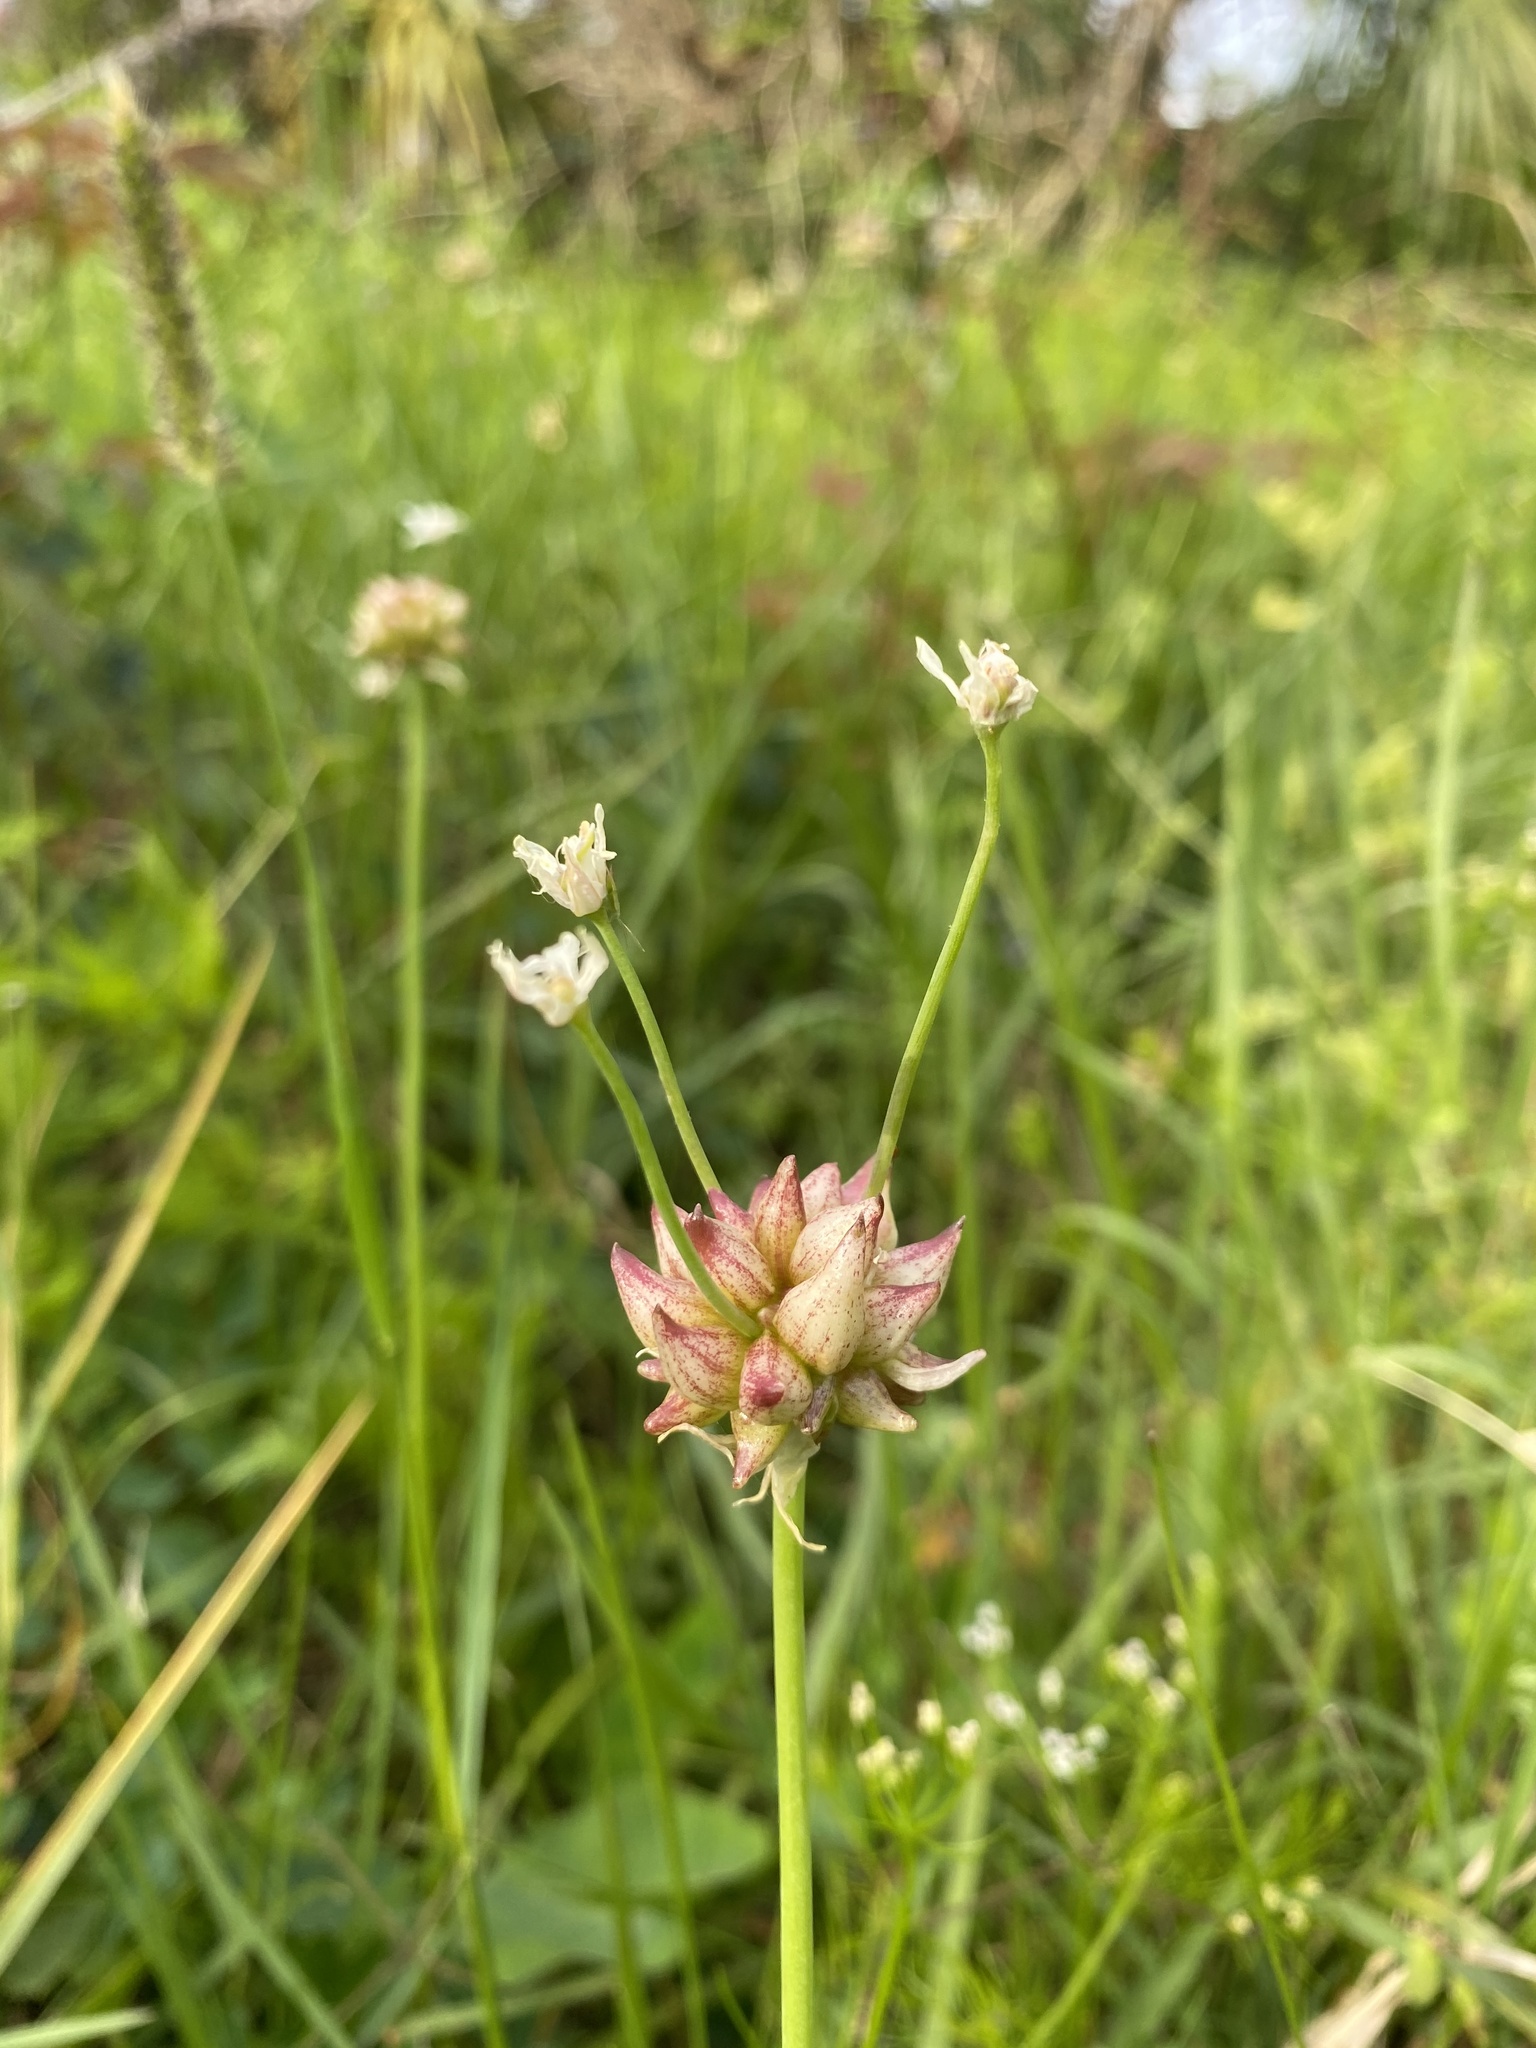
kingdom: Plantae
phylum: Tracheophyta
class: Liliopsida
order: Asparagales
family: Amaryllidaceae
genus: Allium
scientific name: Allium canadense
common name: Meadow garlic
